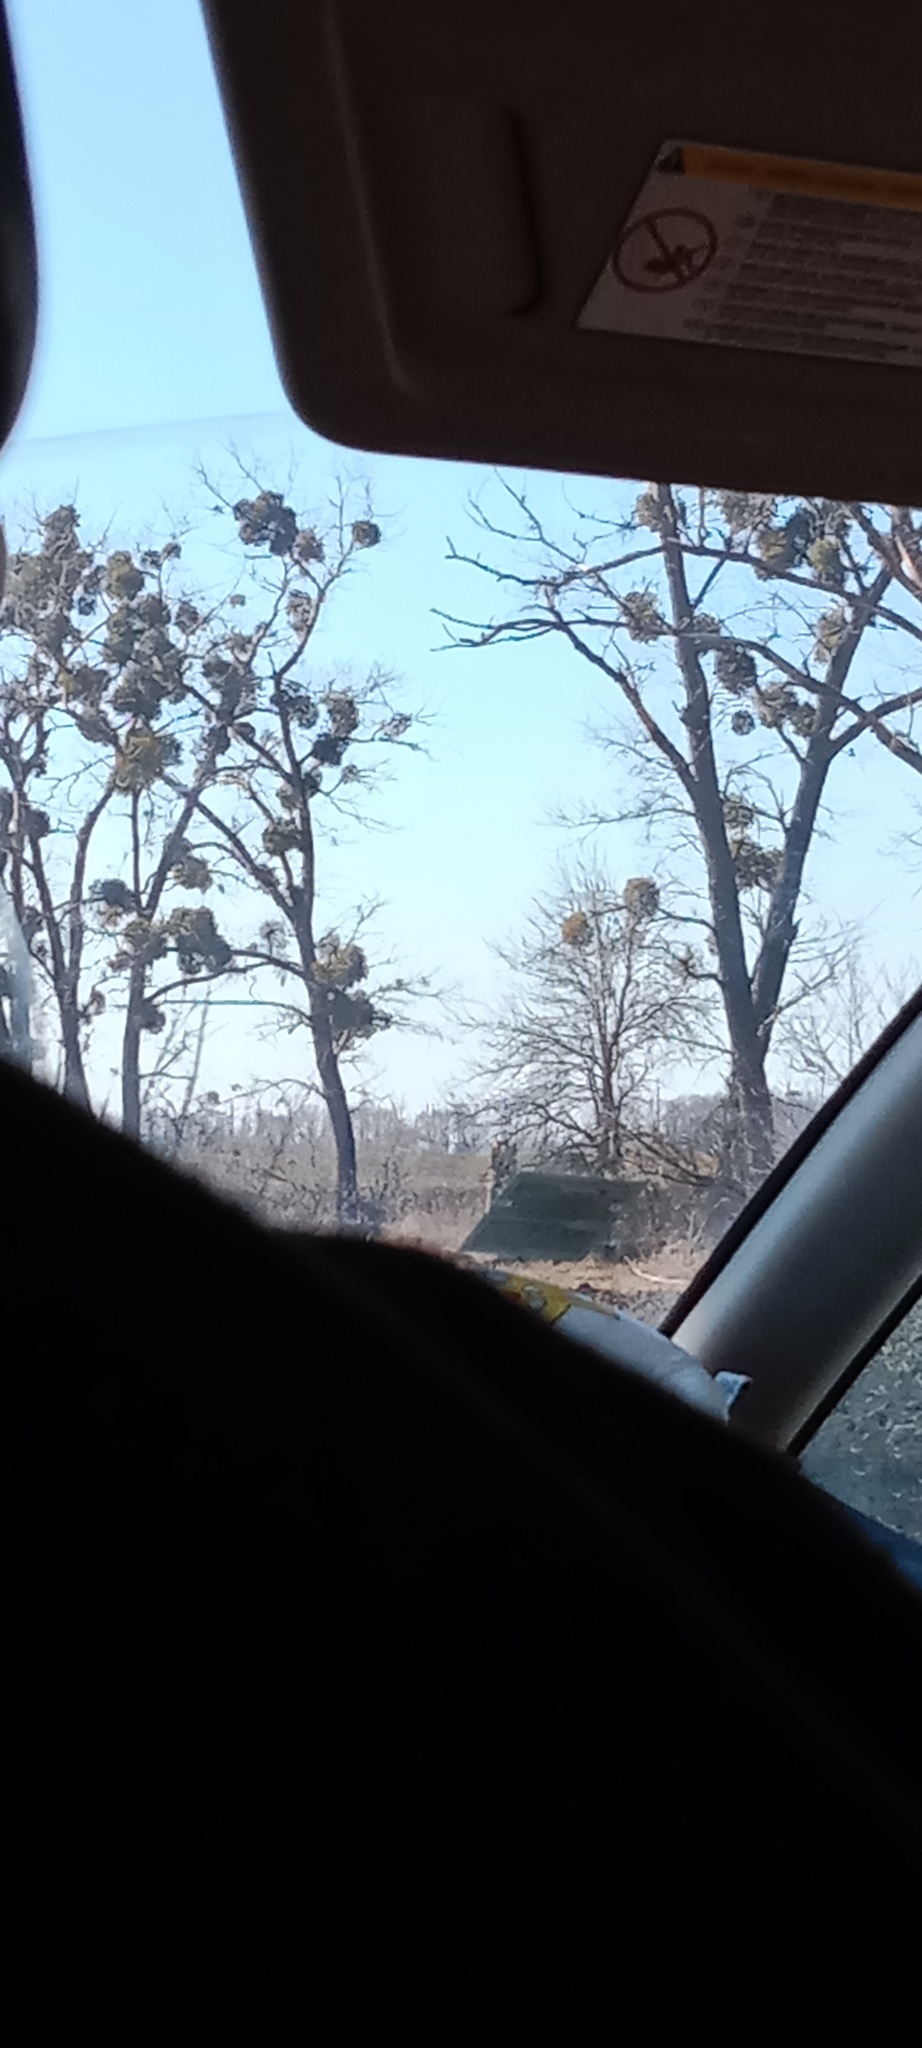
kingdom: Plantae
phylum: Tracheophyta
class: Magnoliopsida
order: Santalales
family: Viscaceae
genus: Viscum
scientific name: Viscum album
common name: Mistletoe
